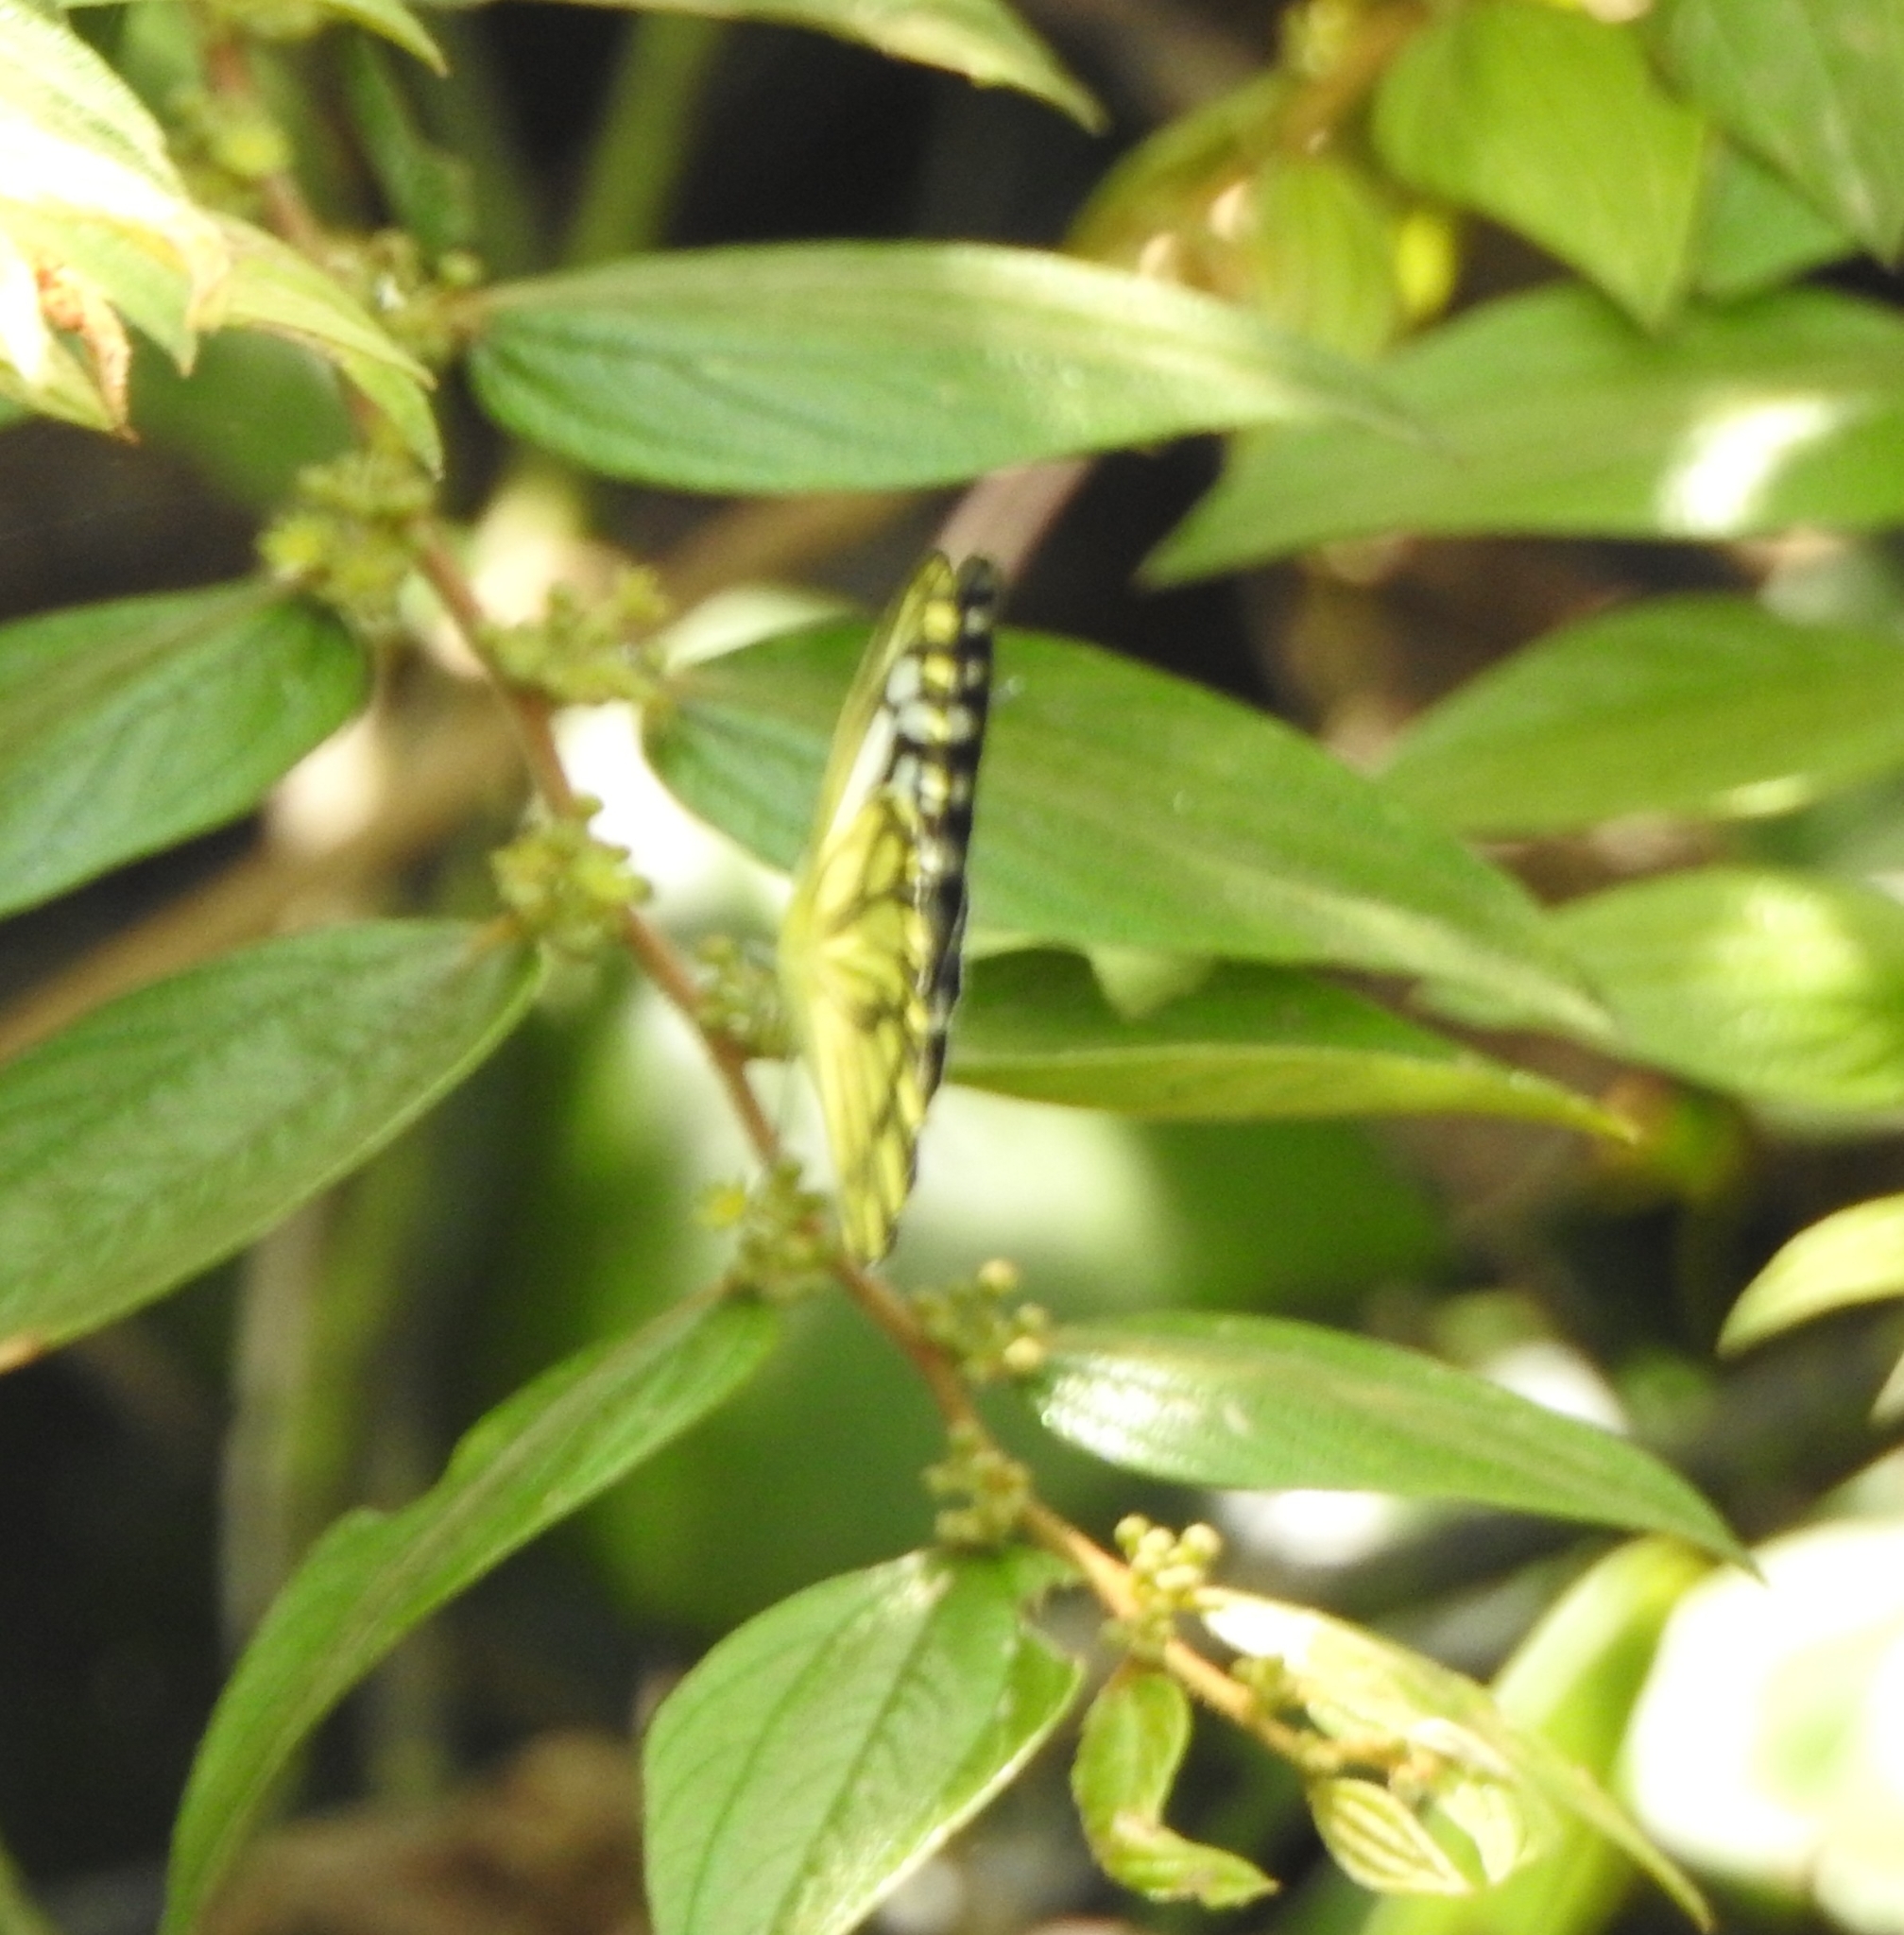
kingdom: Animalia
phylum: Arthropoda
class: Insecta
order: Lepidoptera
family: Pieridae
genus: Cepora
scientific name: Cepora nerissa
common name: Common gull
